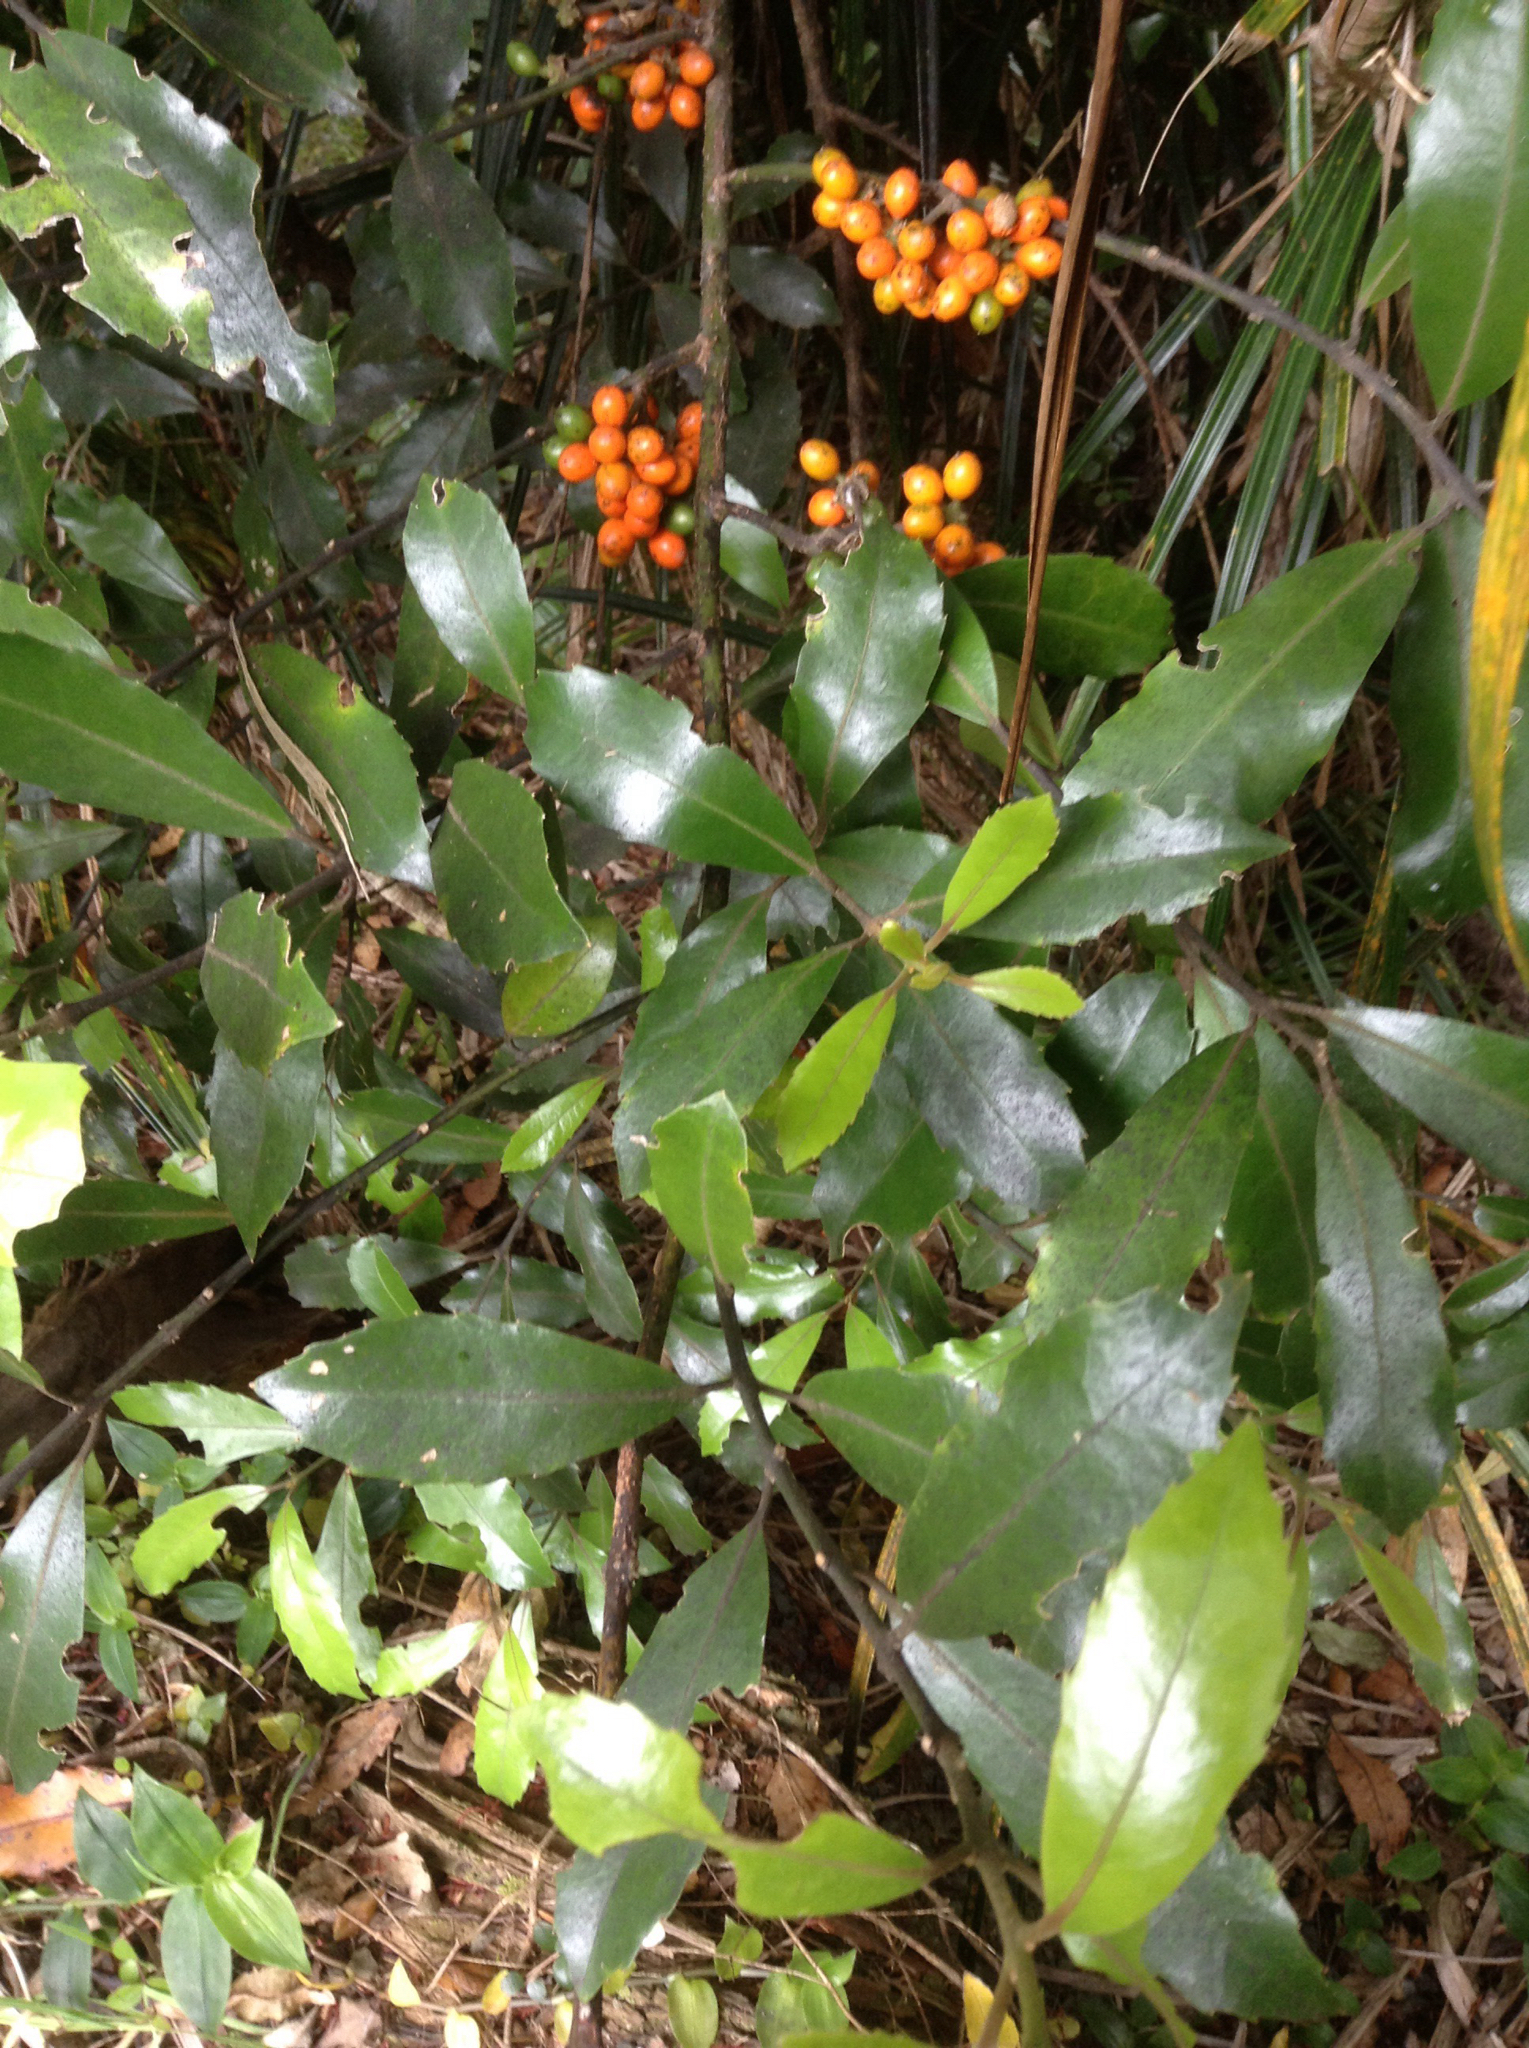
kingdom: Plantae
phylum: Tracheophyta
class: Magnoliopsida
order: Laurales
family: Monimiaceae
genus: Hedycarya
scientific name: Hedycarya arborea
